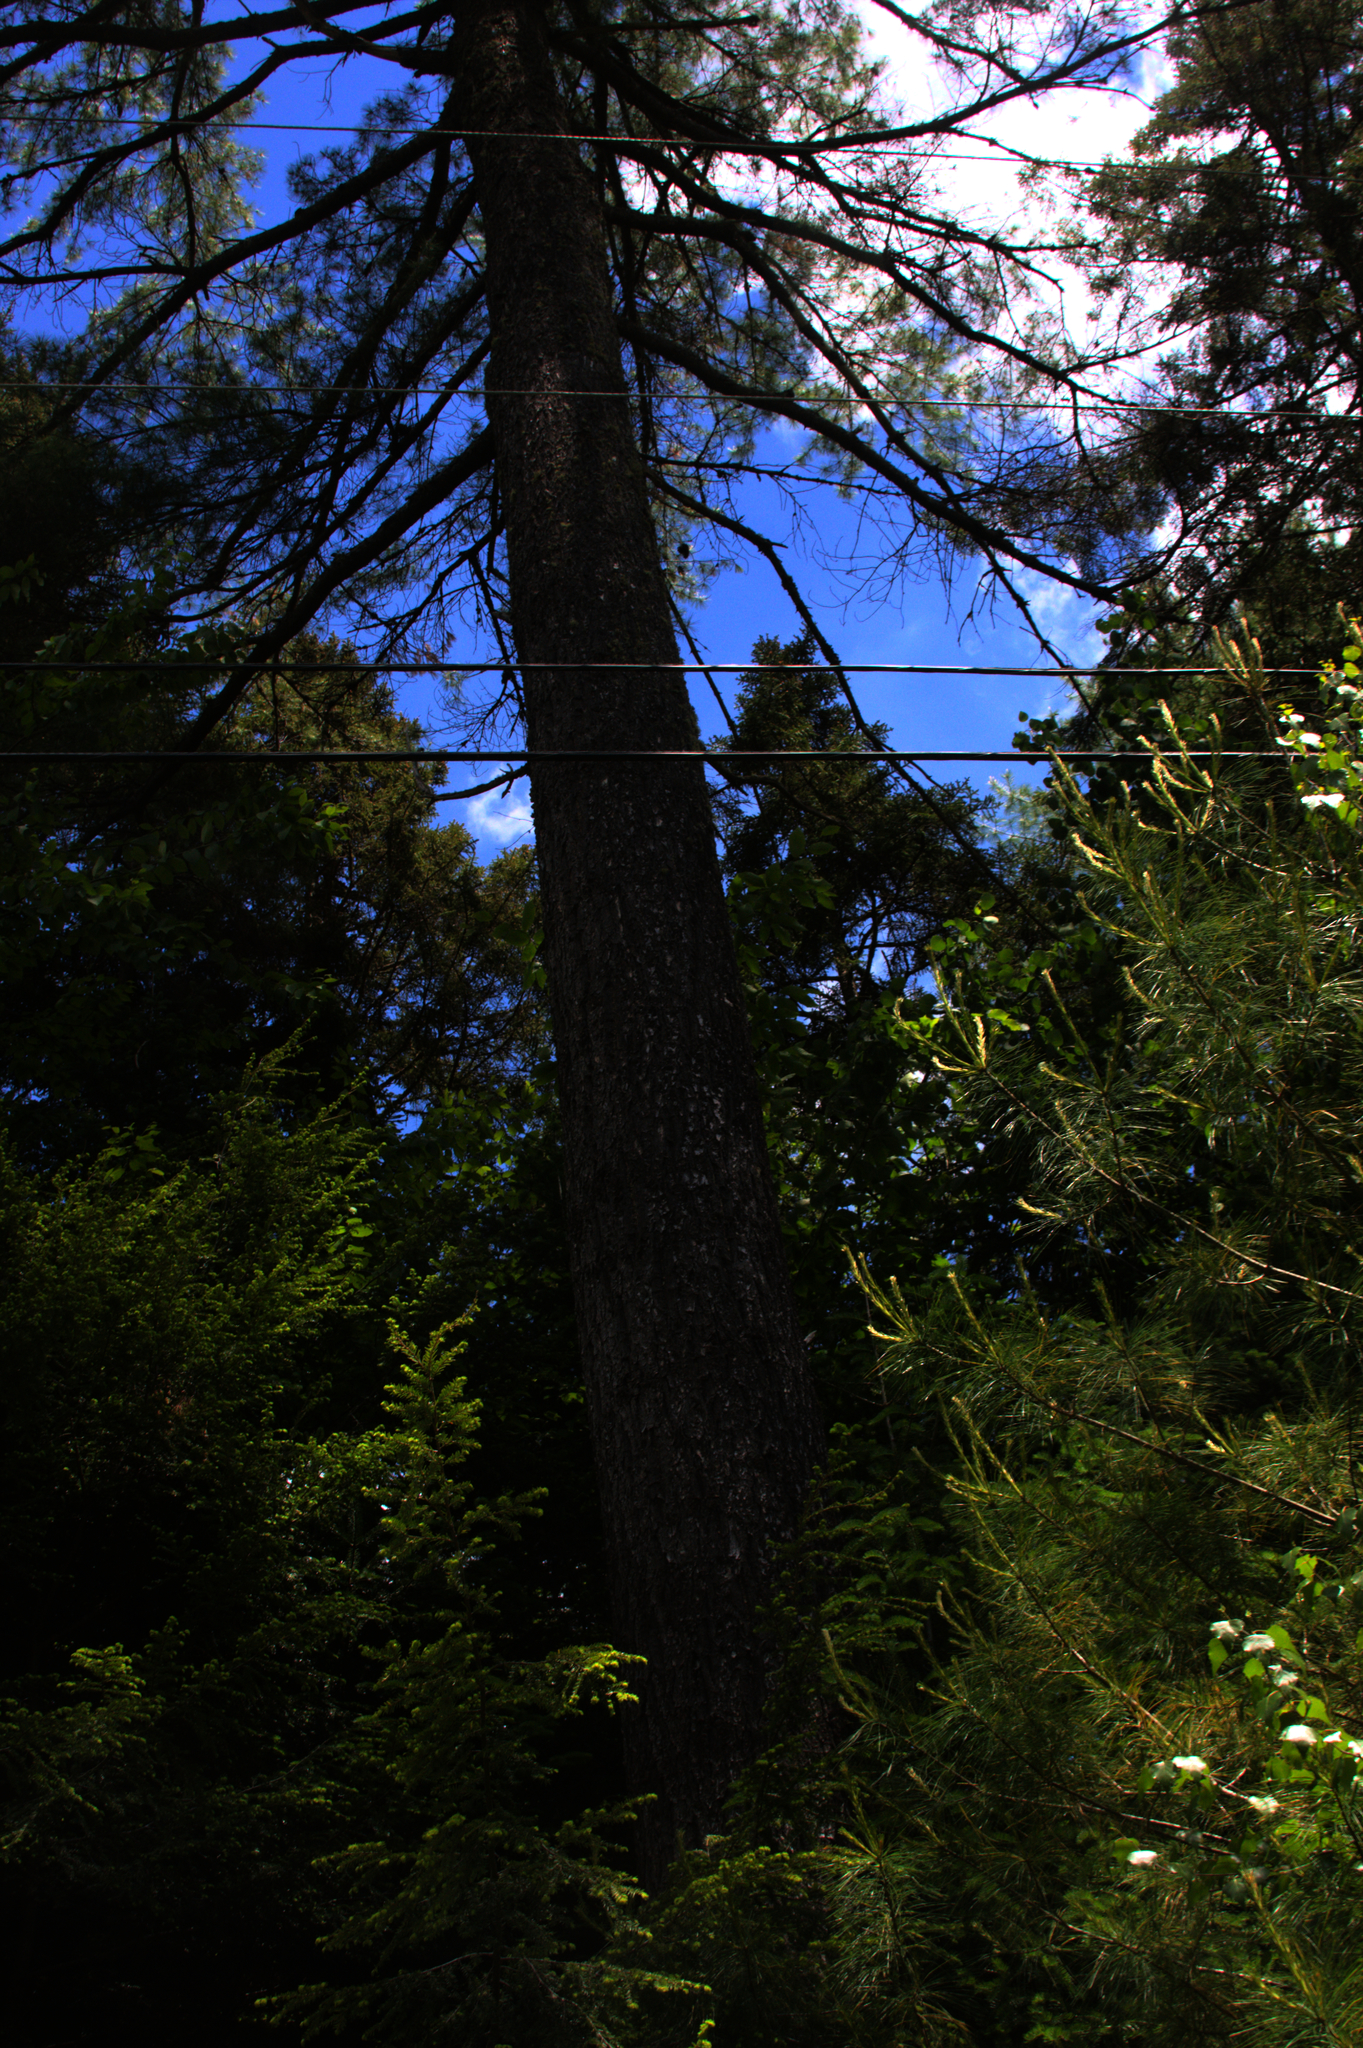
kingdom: Plantae
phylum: Tracheophyta
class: Pinopsida
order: Pinales
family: Pinaceae
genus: Pinus
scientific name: Pinus strobus
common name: Weymouth pine
